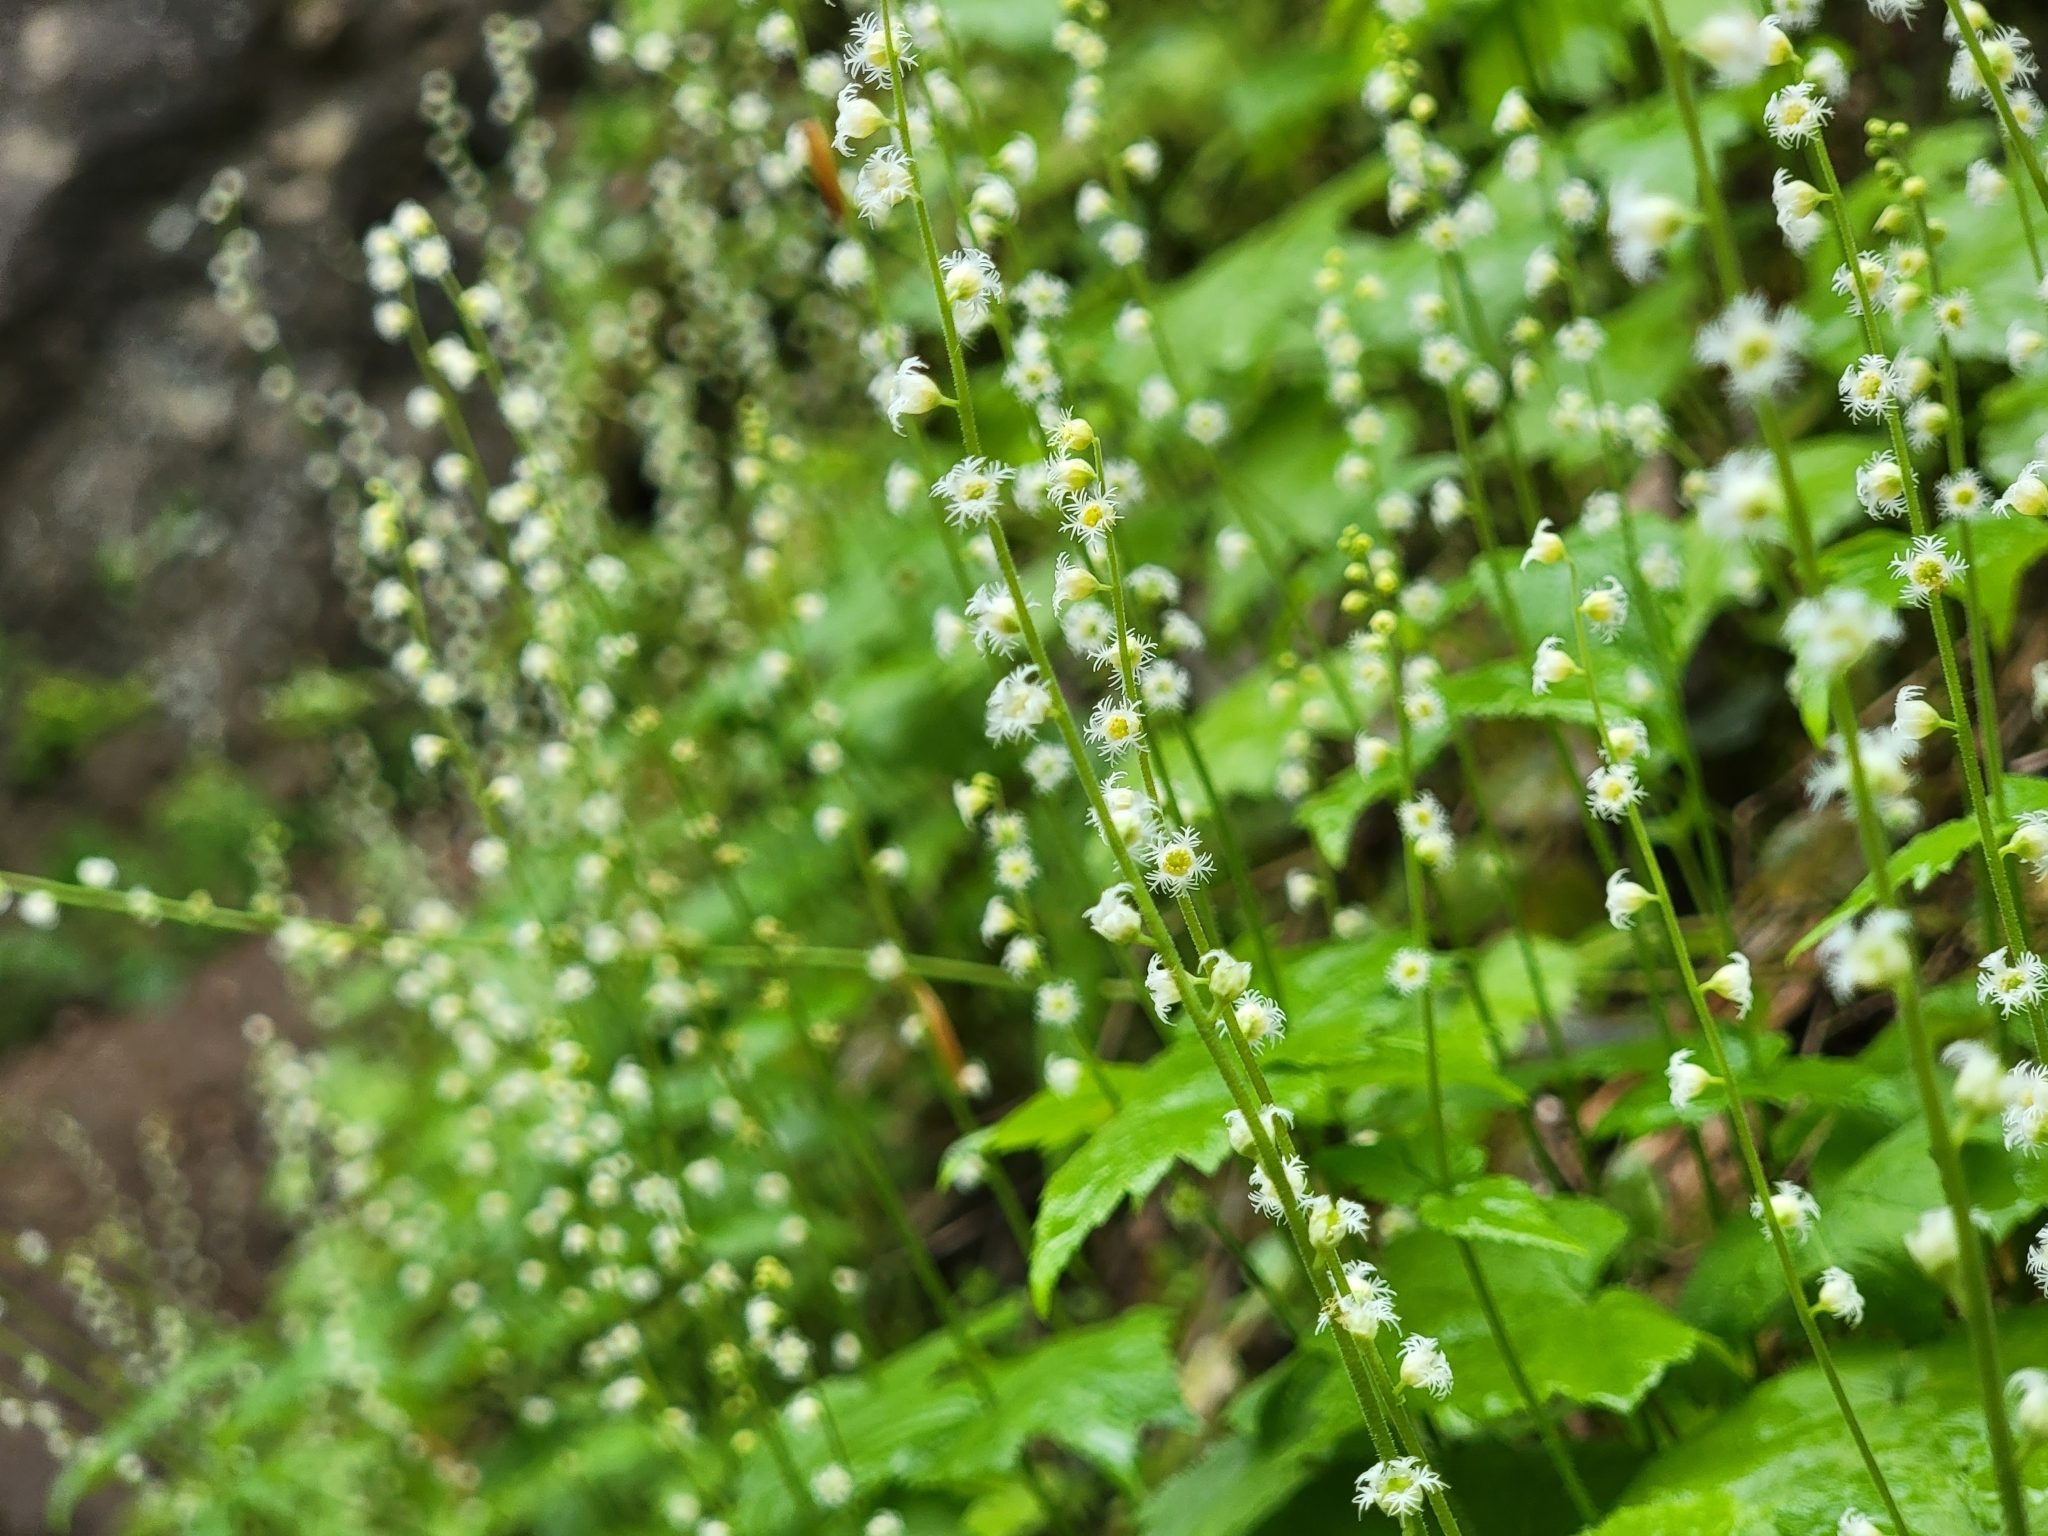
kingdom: Plantae
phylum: Tracheophyta
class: Magnoliopsida
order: Saxifragales
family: Saxifragaceae
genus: Mitella
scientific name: Mitella diphylla
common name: Coolwort
